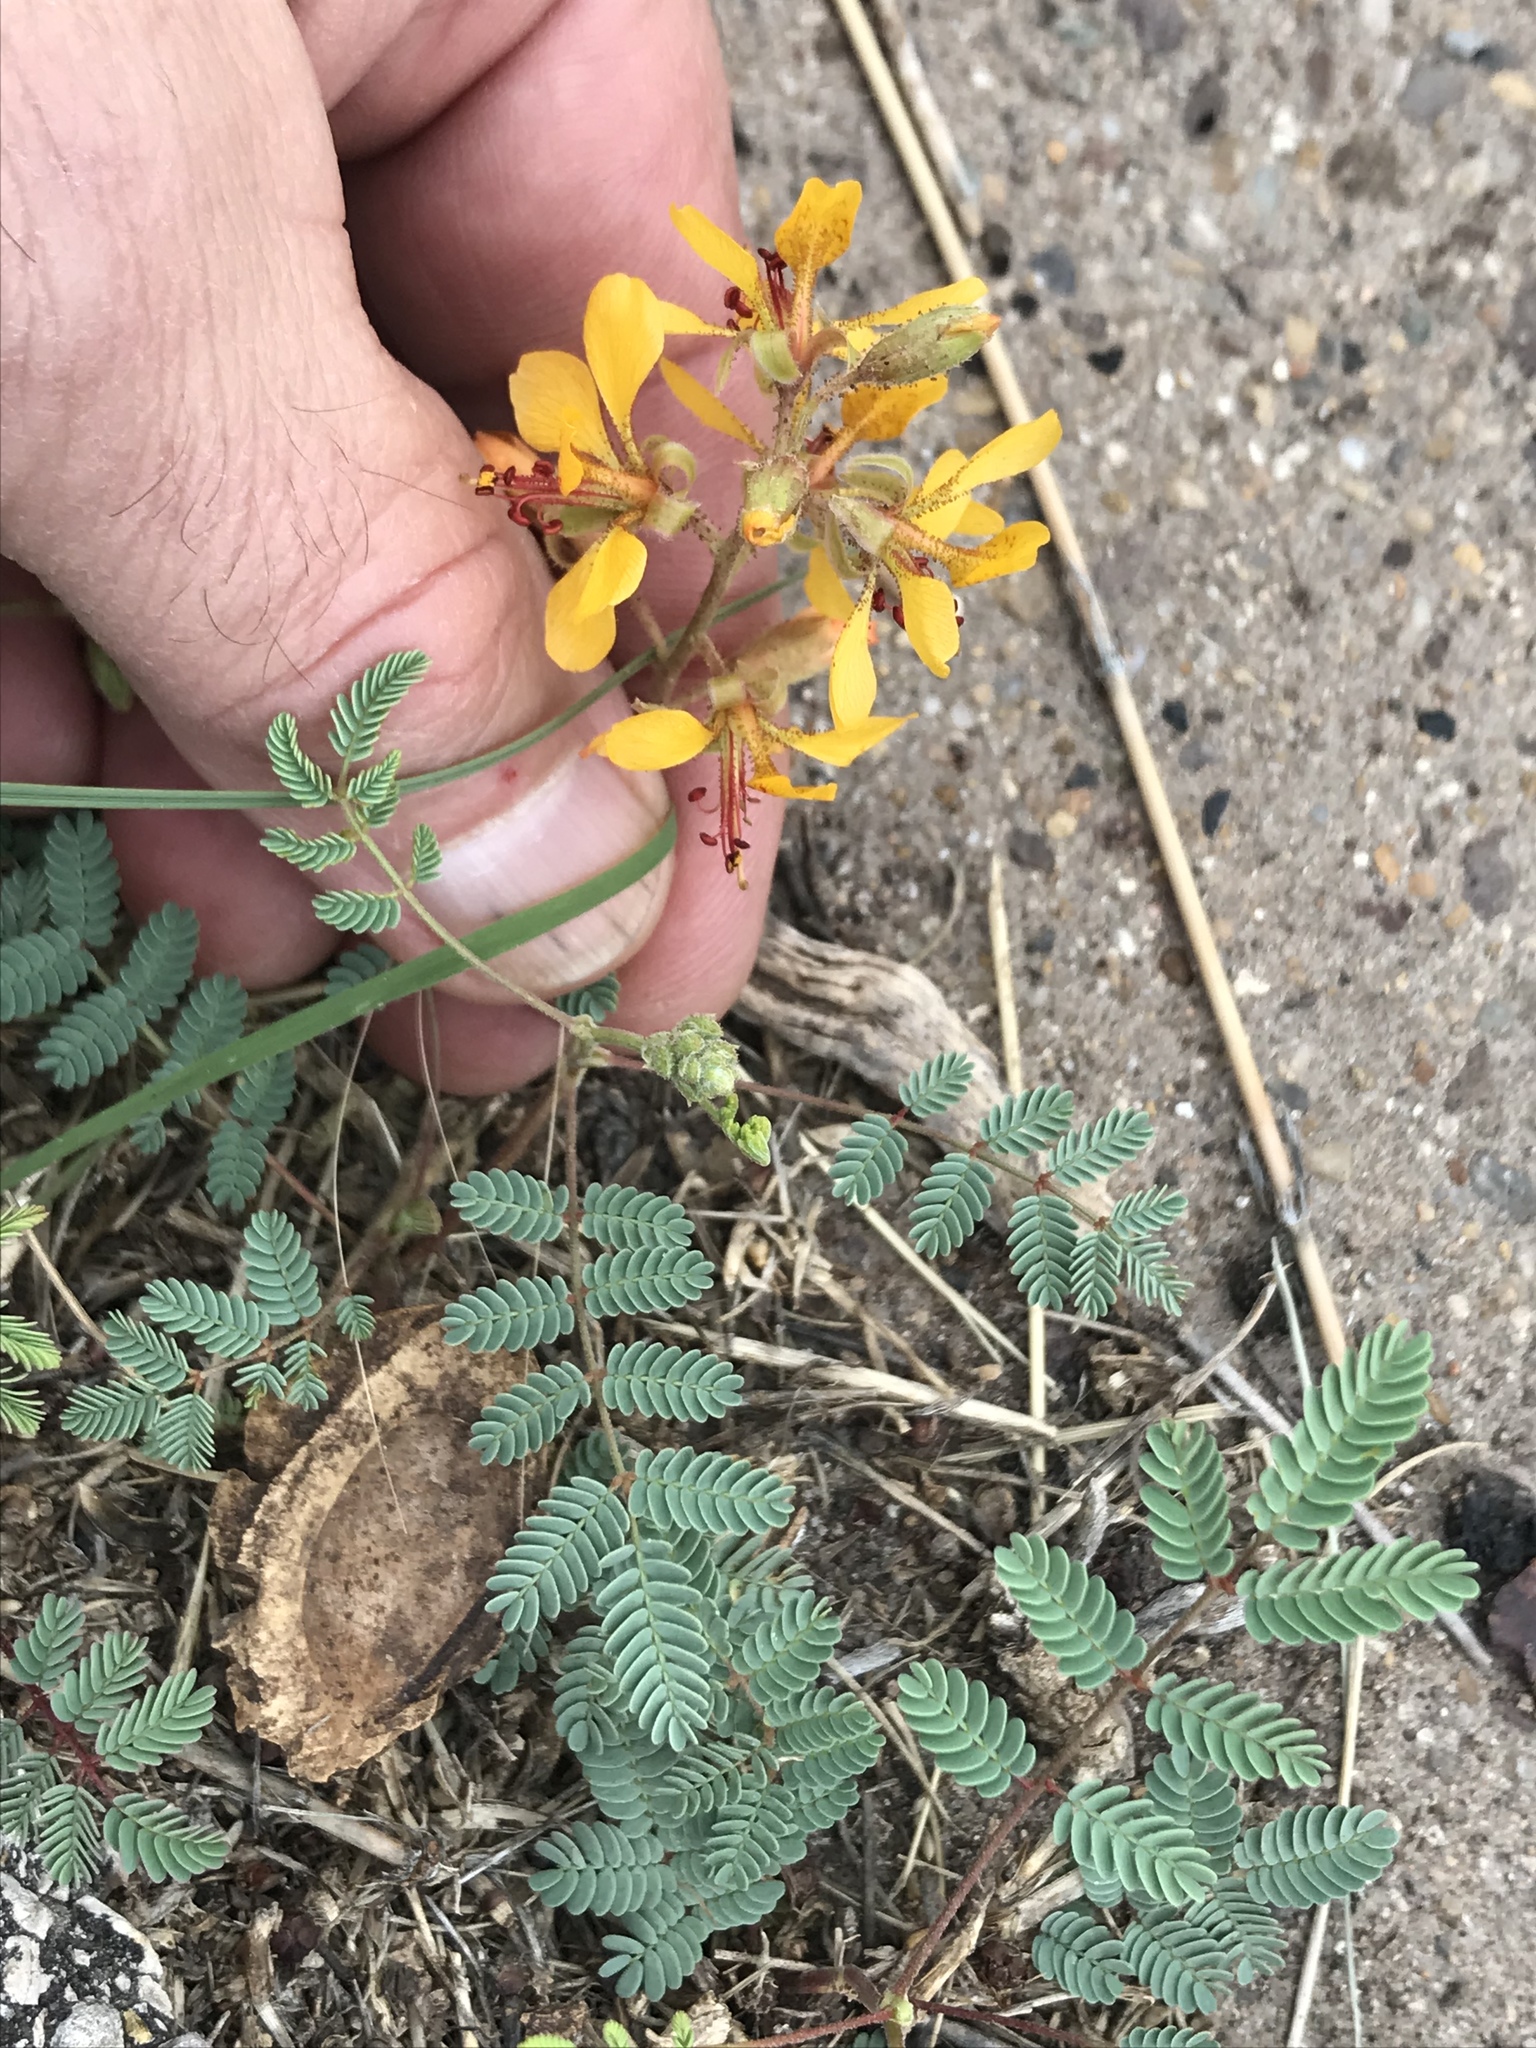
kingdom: Plantae
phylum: Tracheophyta
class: Magnoliopsida
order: Fabales
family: Fabaceae
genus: Hoffmannseggia
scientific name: Hoffmannseggia glauca
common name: Pignut
